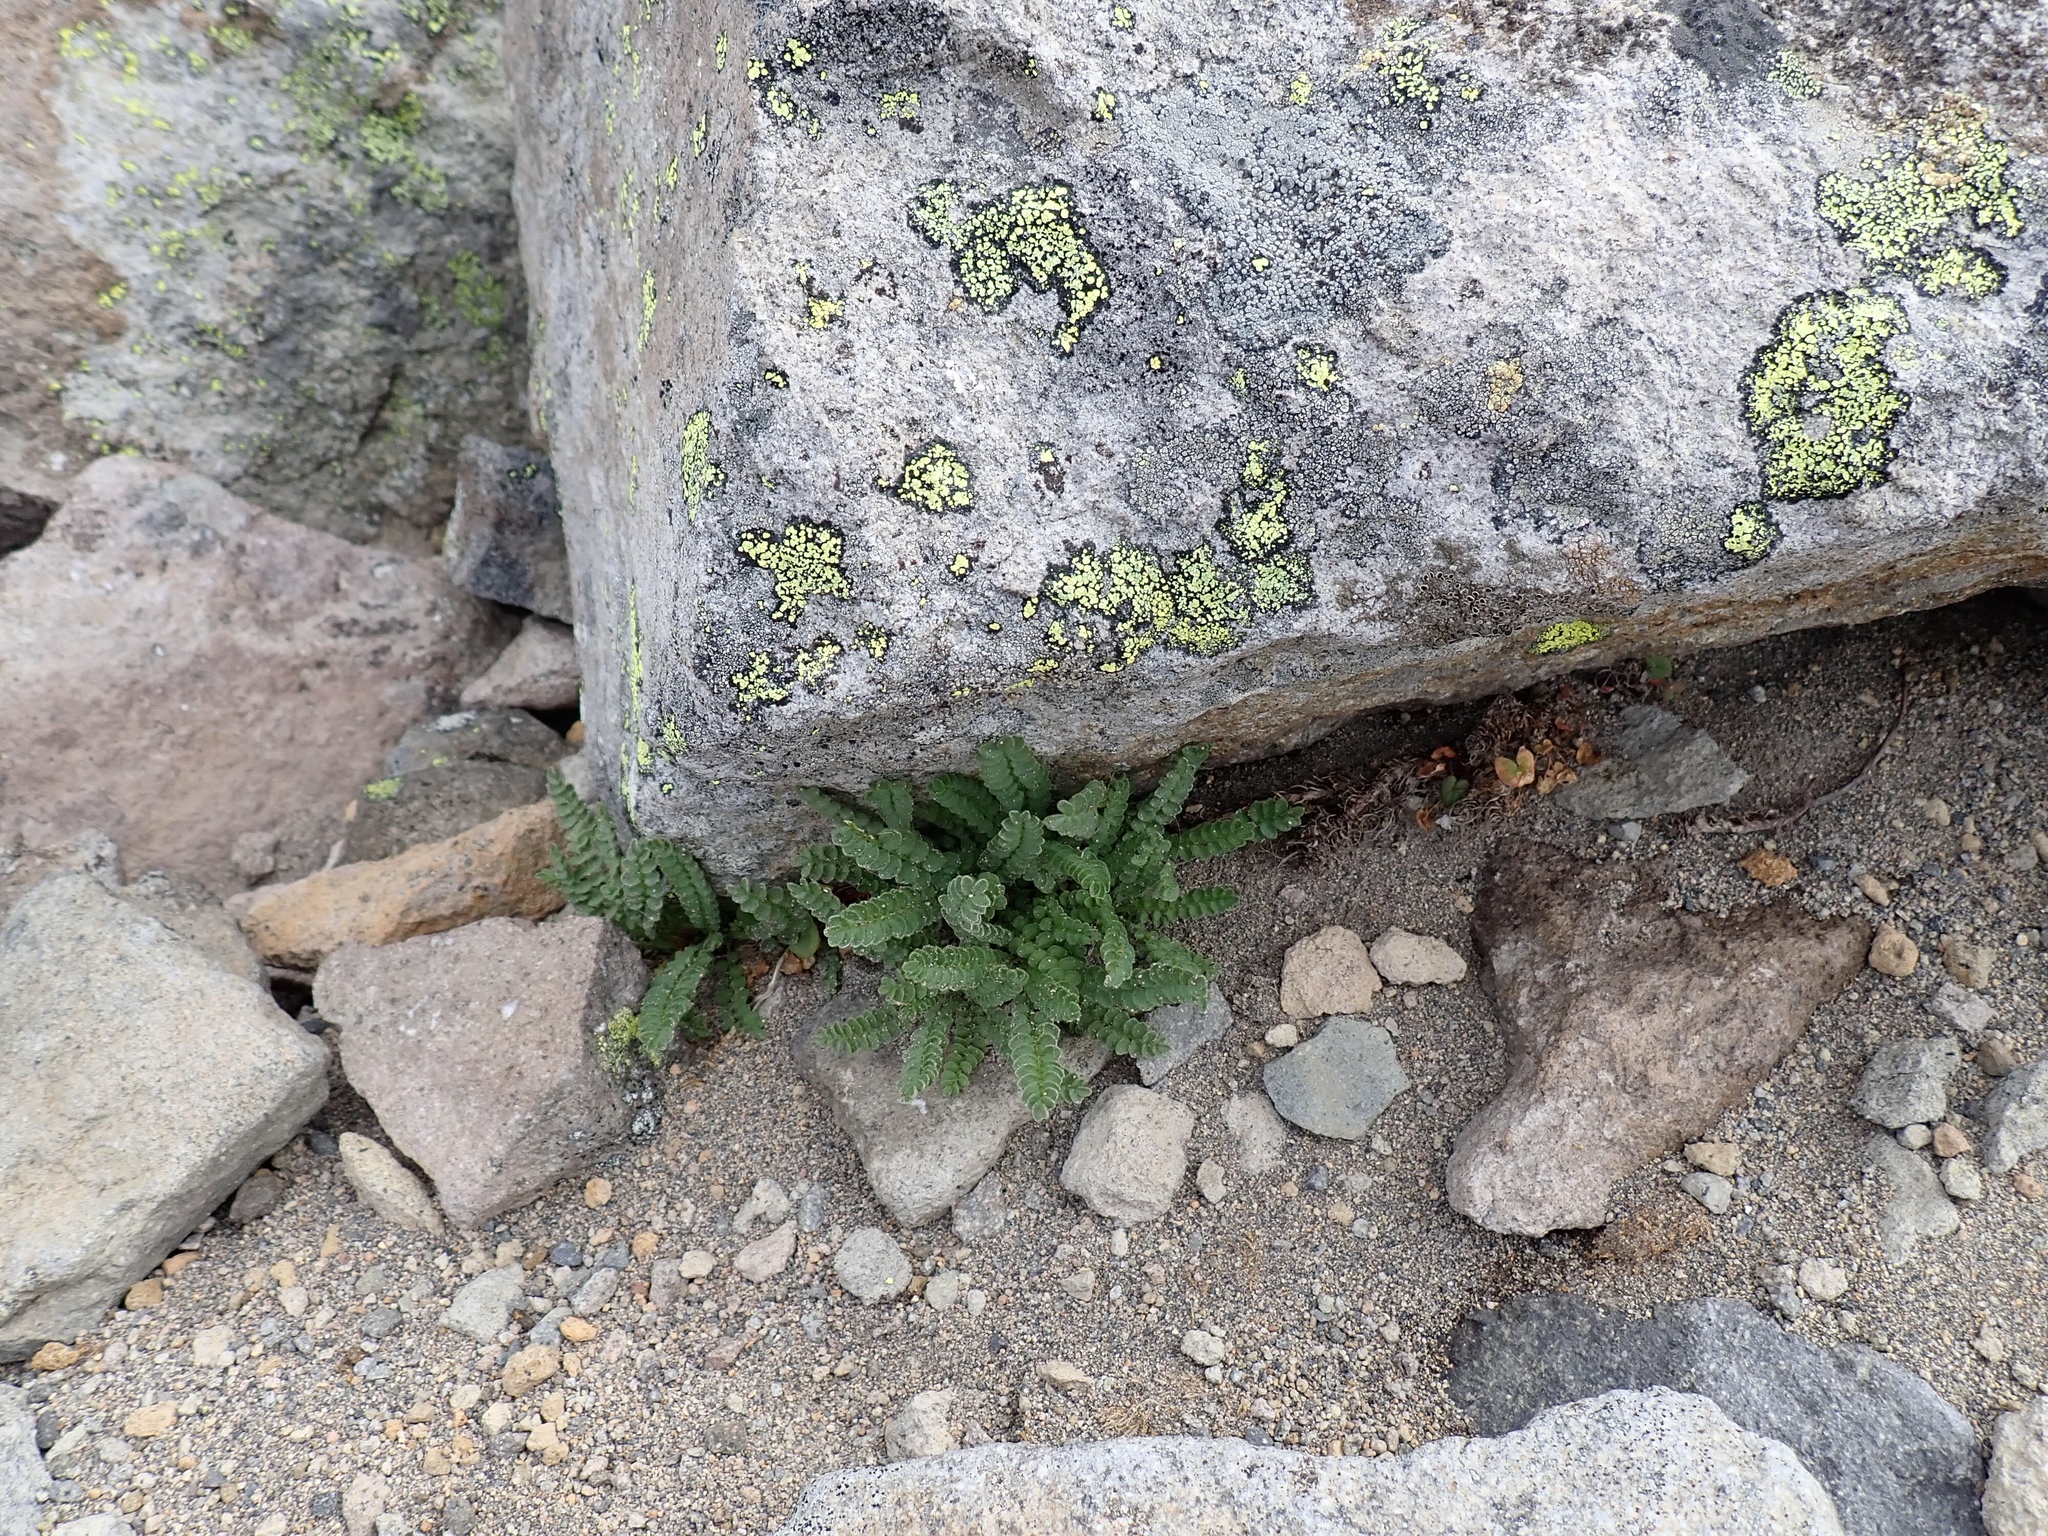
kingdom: Plantae
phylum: Tracheophyta
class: Magnoliopsida
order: Ericales
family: Polemoniaceae
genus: Polemonium
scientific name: Polemonium elegans
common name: Elegant jacob's-ladder
